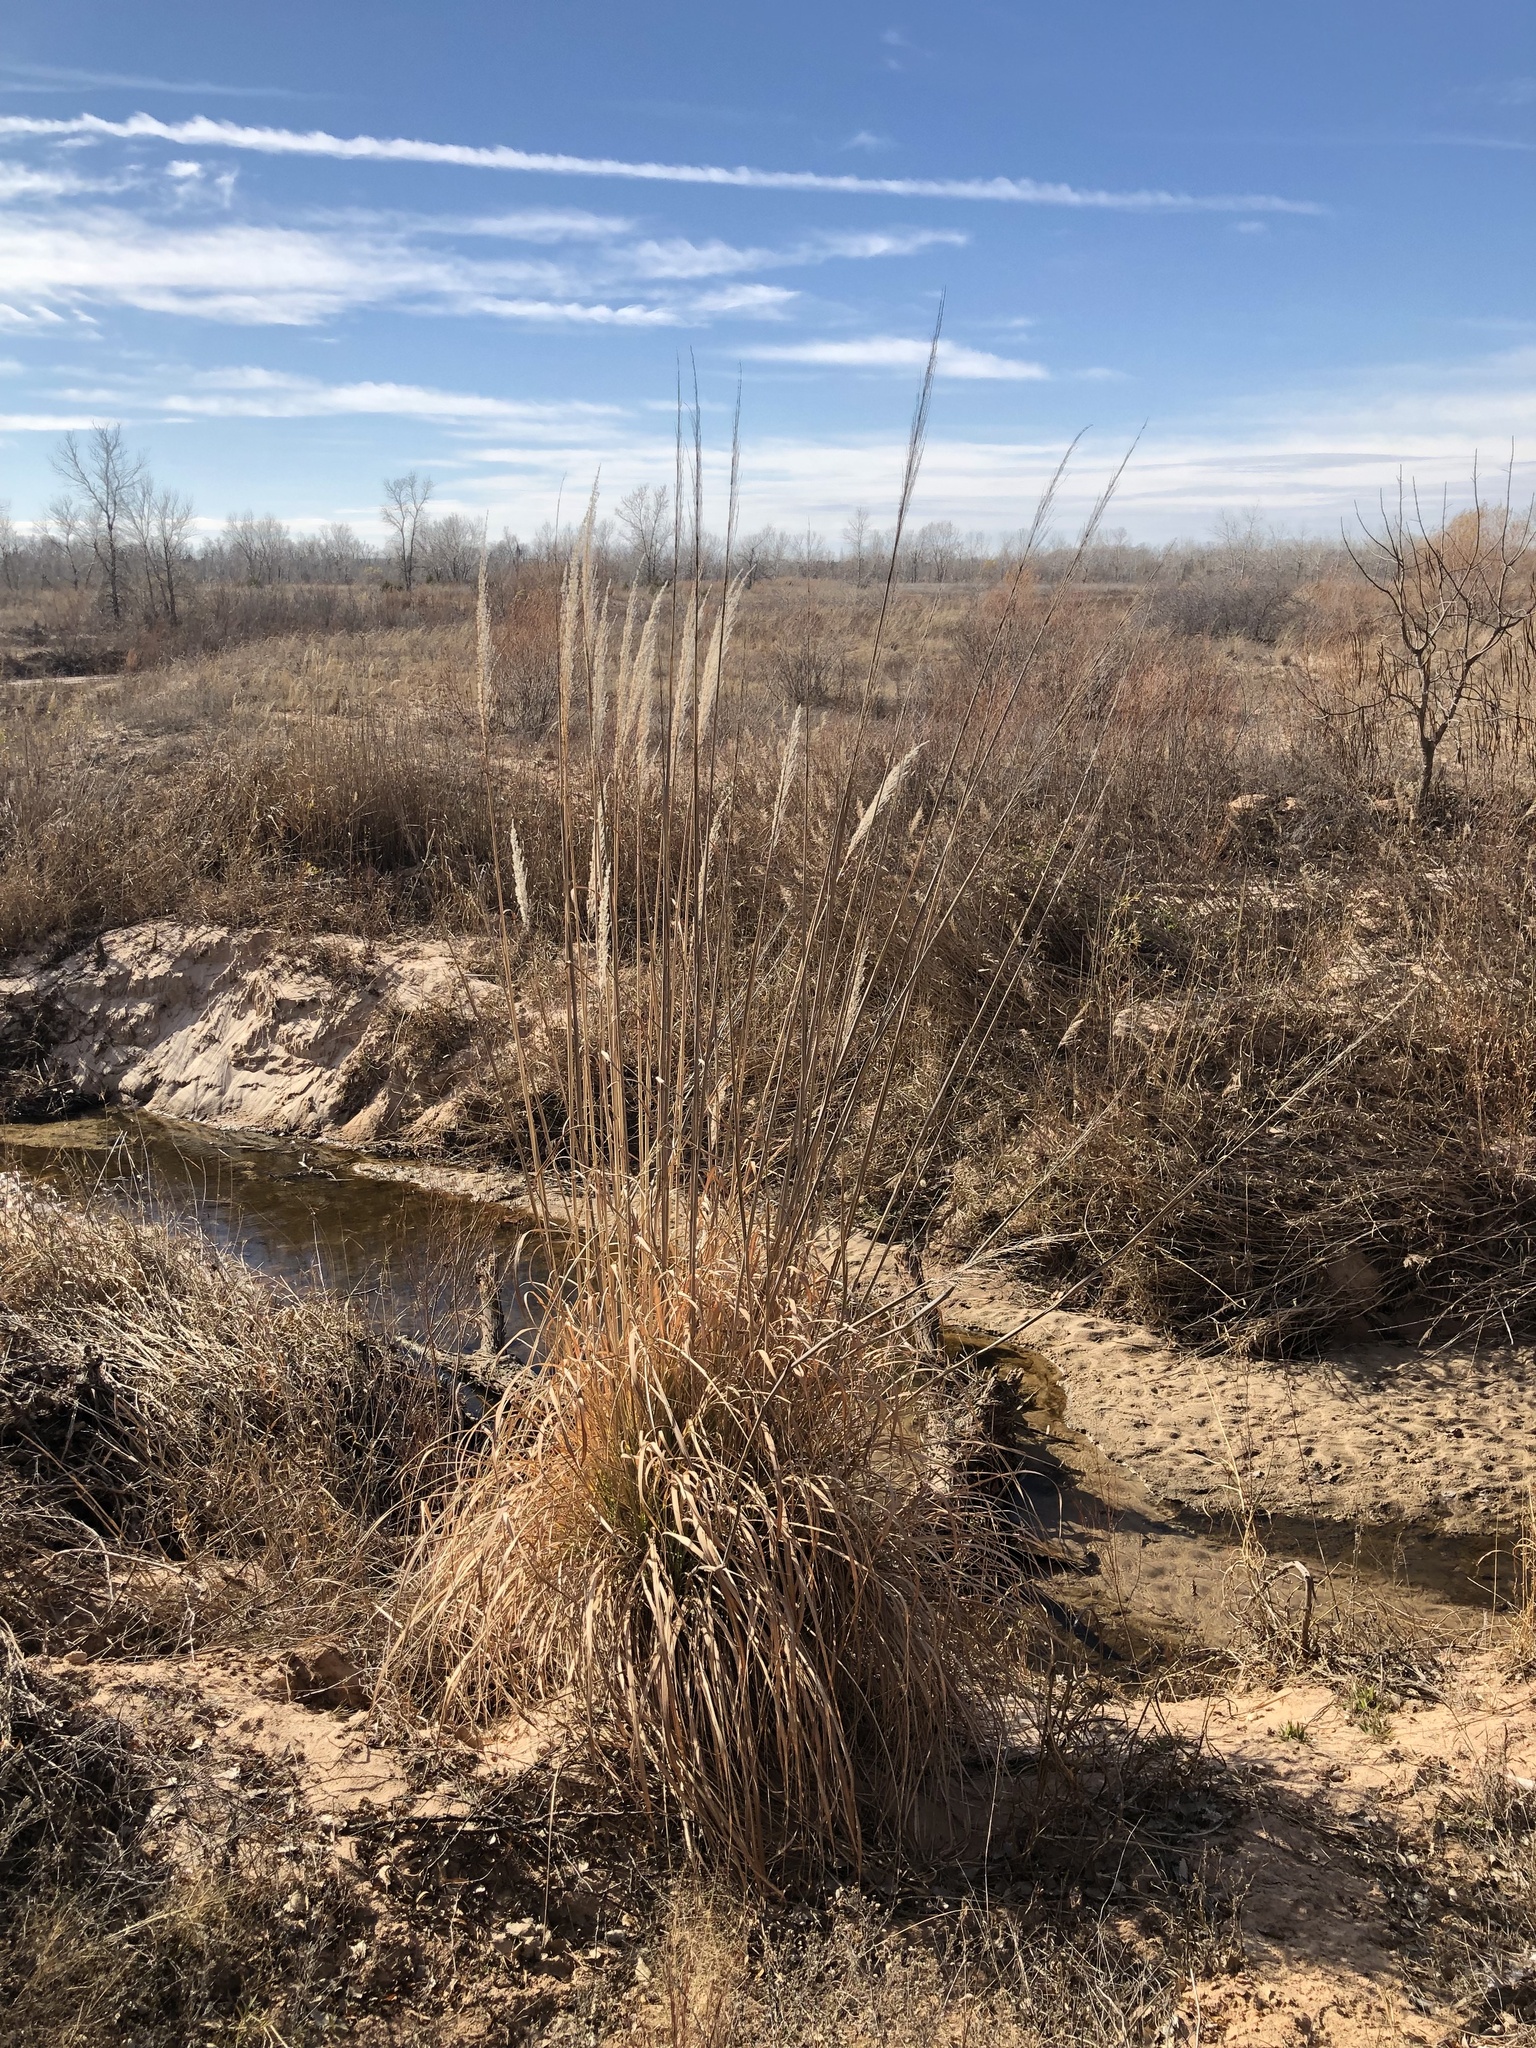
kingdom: Plantae
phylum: Tracheophyta
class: Liliopsida
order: Poales
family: Poaceae
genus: Tripidium
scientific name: Tripidium ravennae
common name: Ravenna grass
